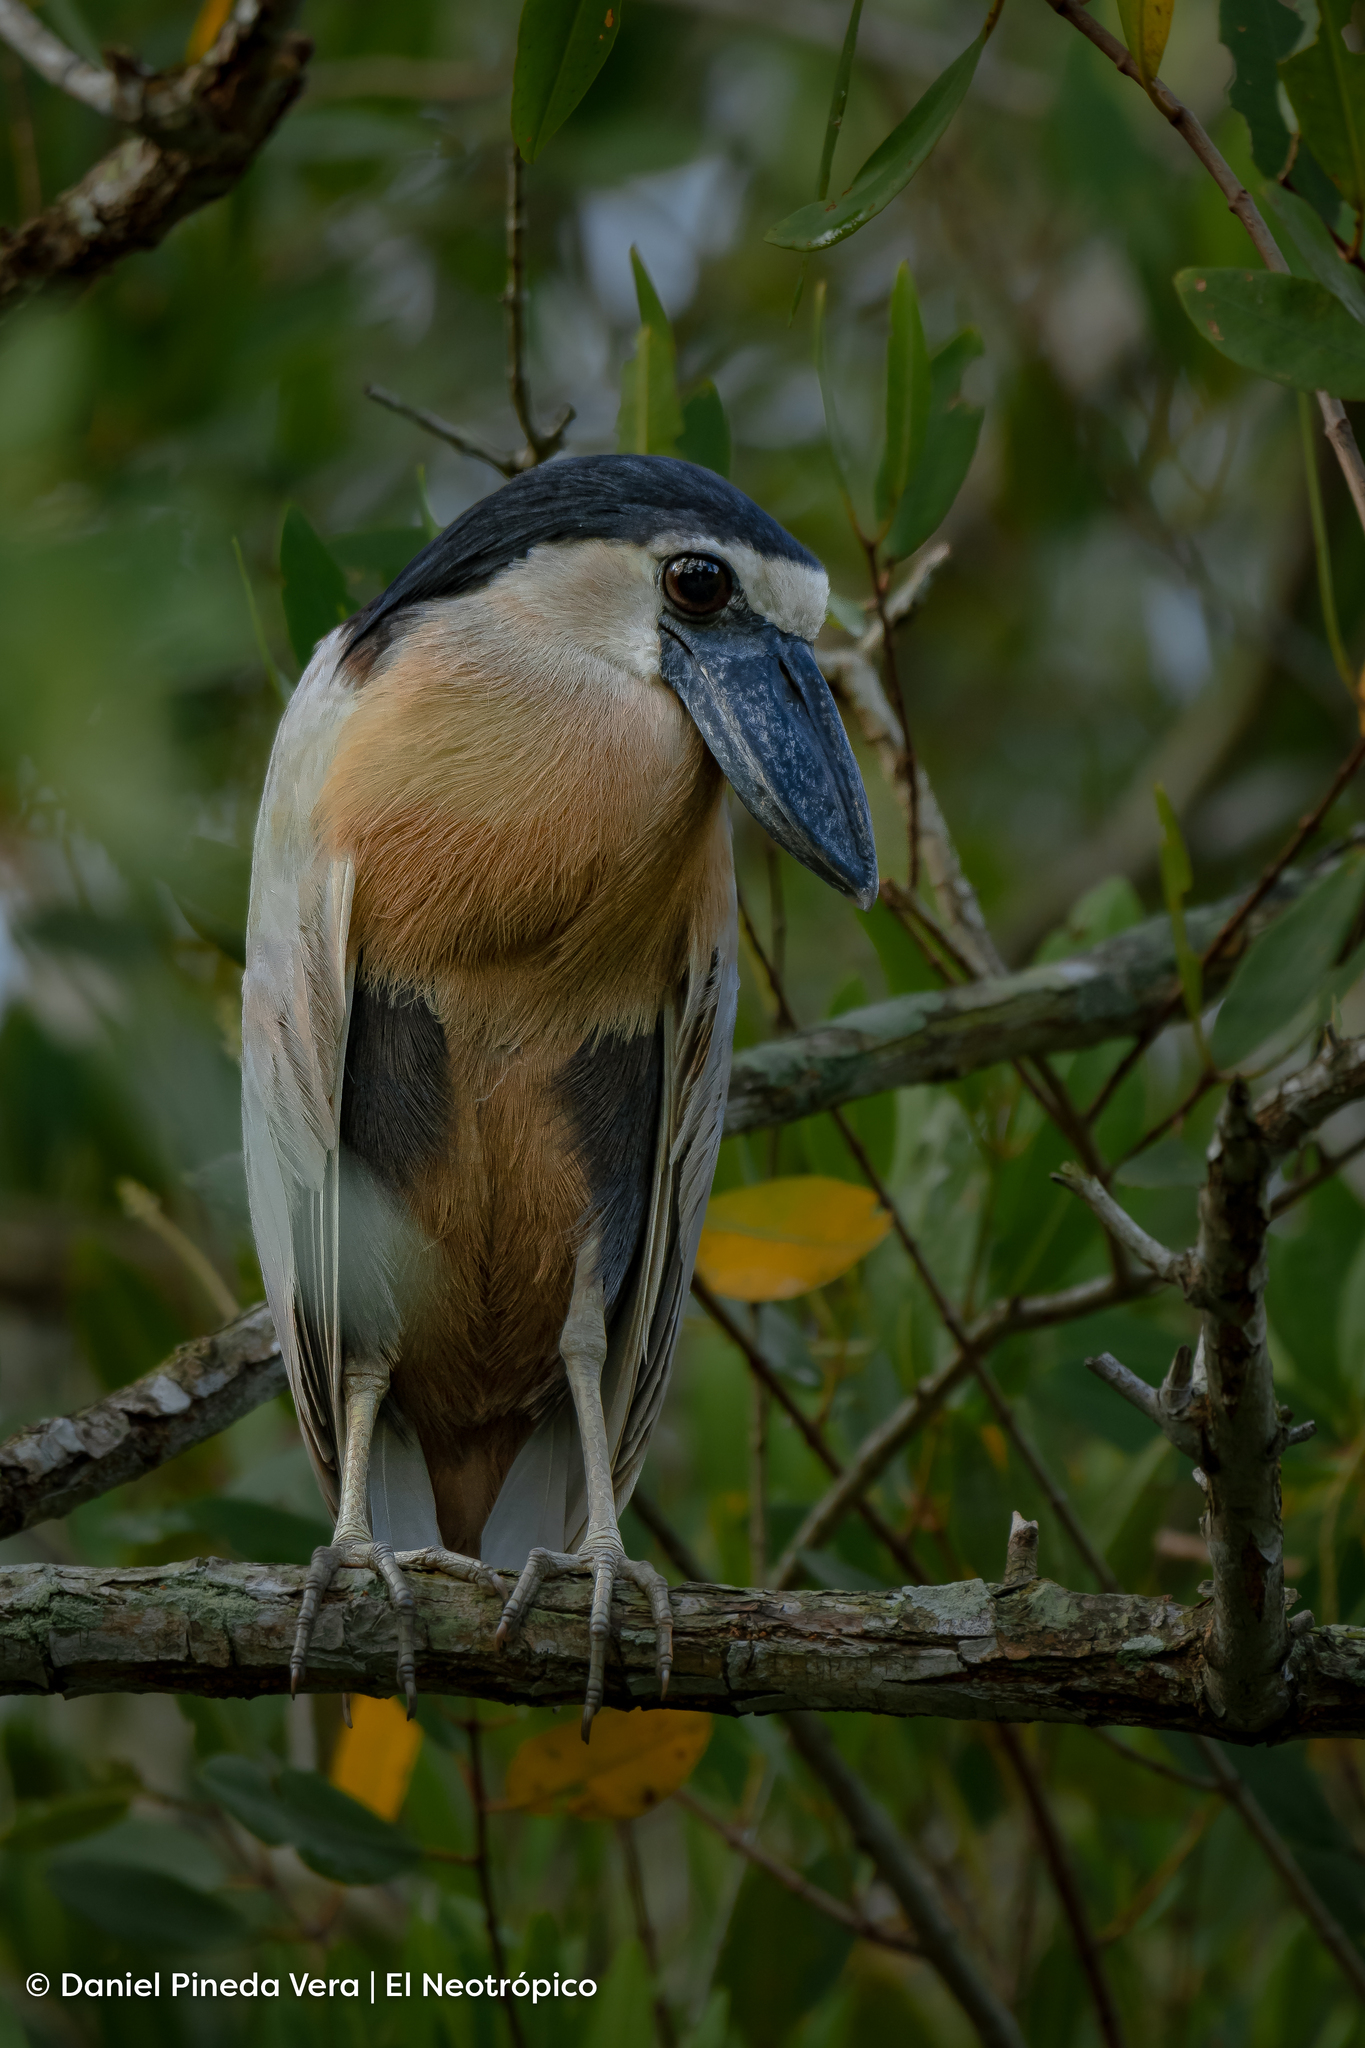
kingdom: Animalia
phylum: Chordata
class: Aves
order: Pelecaniformes
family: Ardeidae
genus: Cochlearius
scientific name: Cochlearius cochlearius
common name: Boat-billed heron
